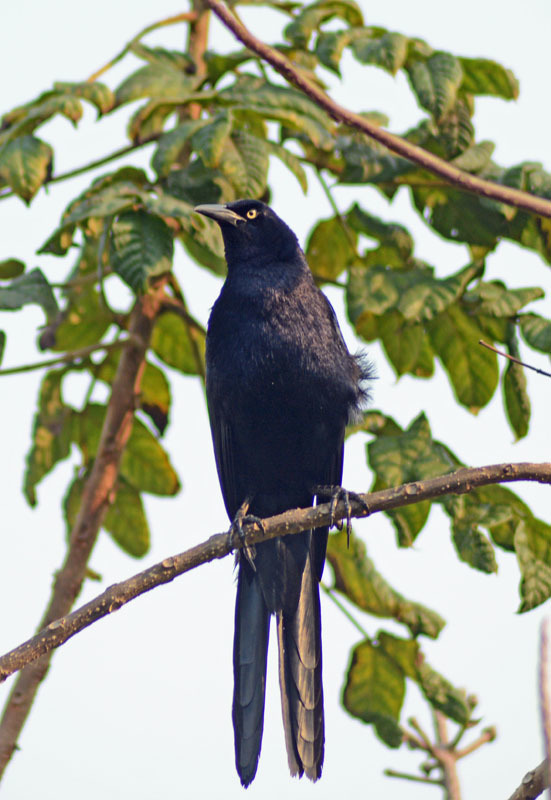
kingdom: Animalia
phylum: Chordata
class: Aves
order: Passeriformes
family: Icteridae
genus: Quiscalus
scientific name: Quiscalus mexicanus
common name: Great-tailed grackle
